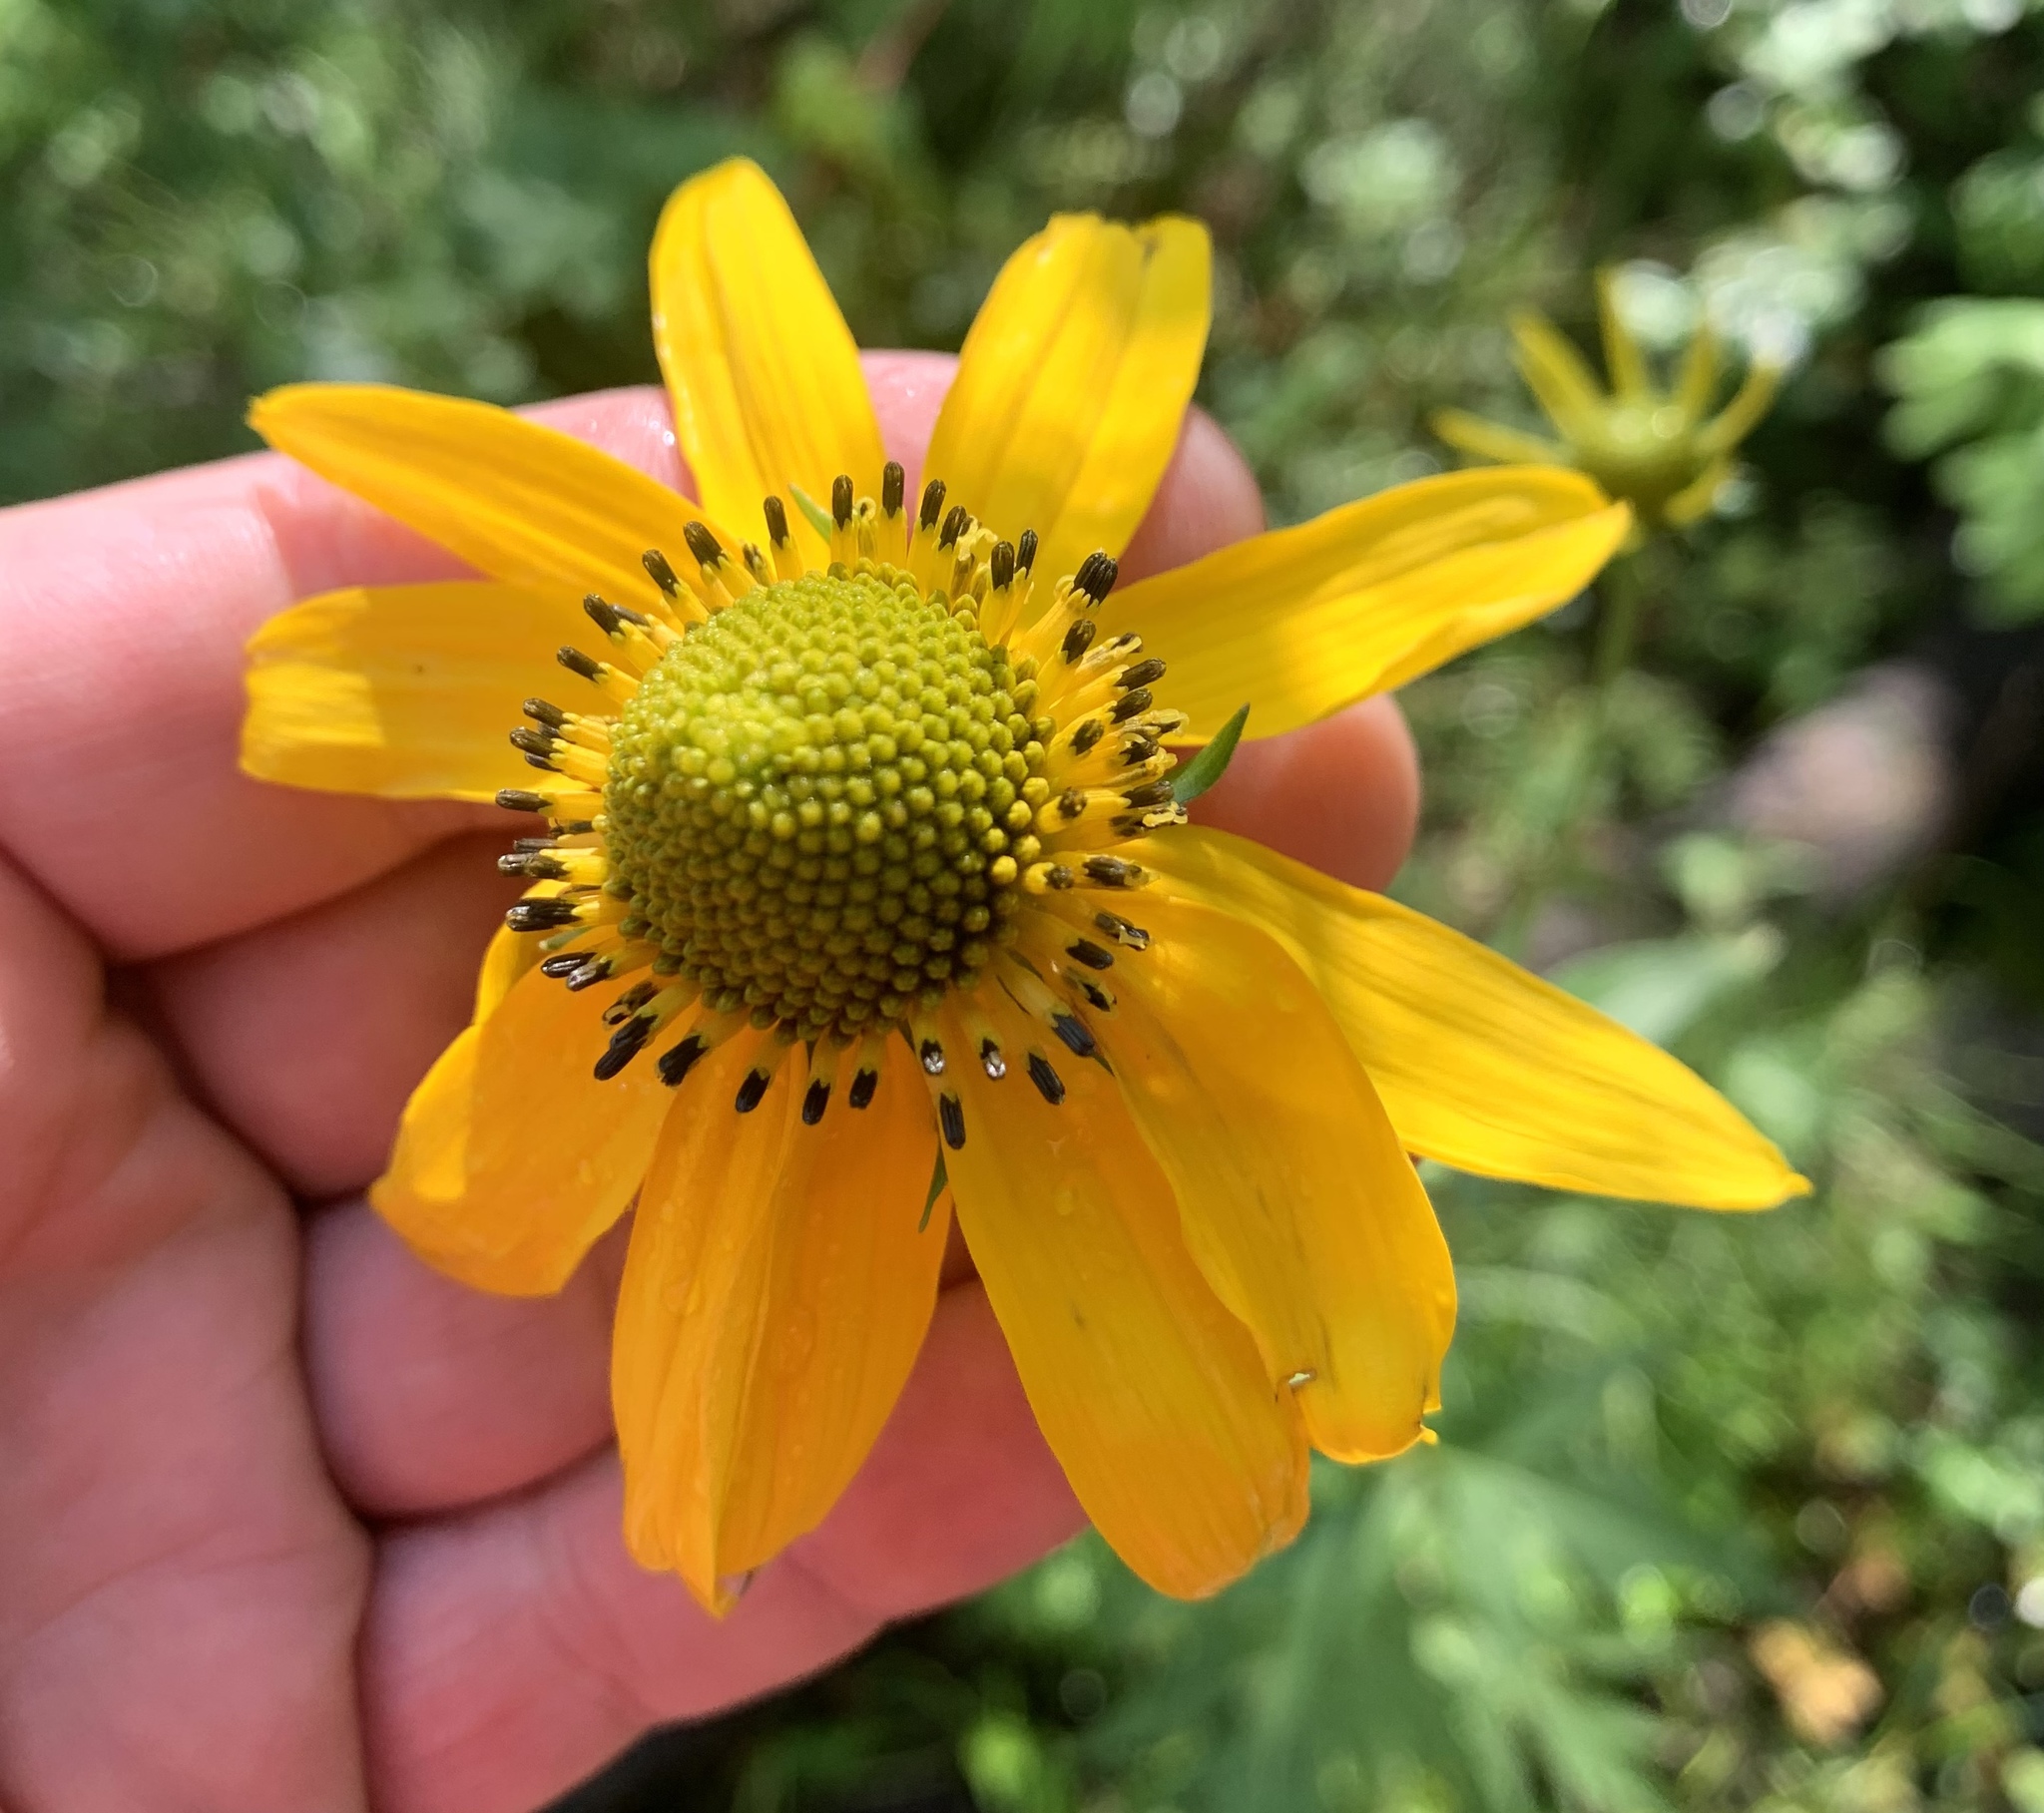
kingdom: Plantae
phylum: Tracheophyta
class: Magnoliopsida
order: Asterales
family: Asteraceae
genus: Rudbeckia
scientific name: Rudbeckia laciniata
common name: Coneflower
